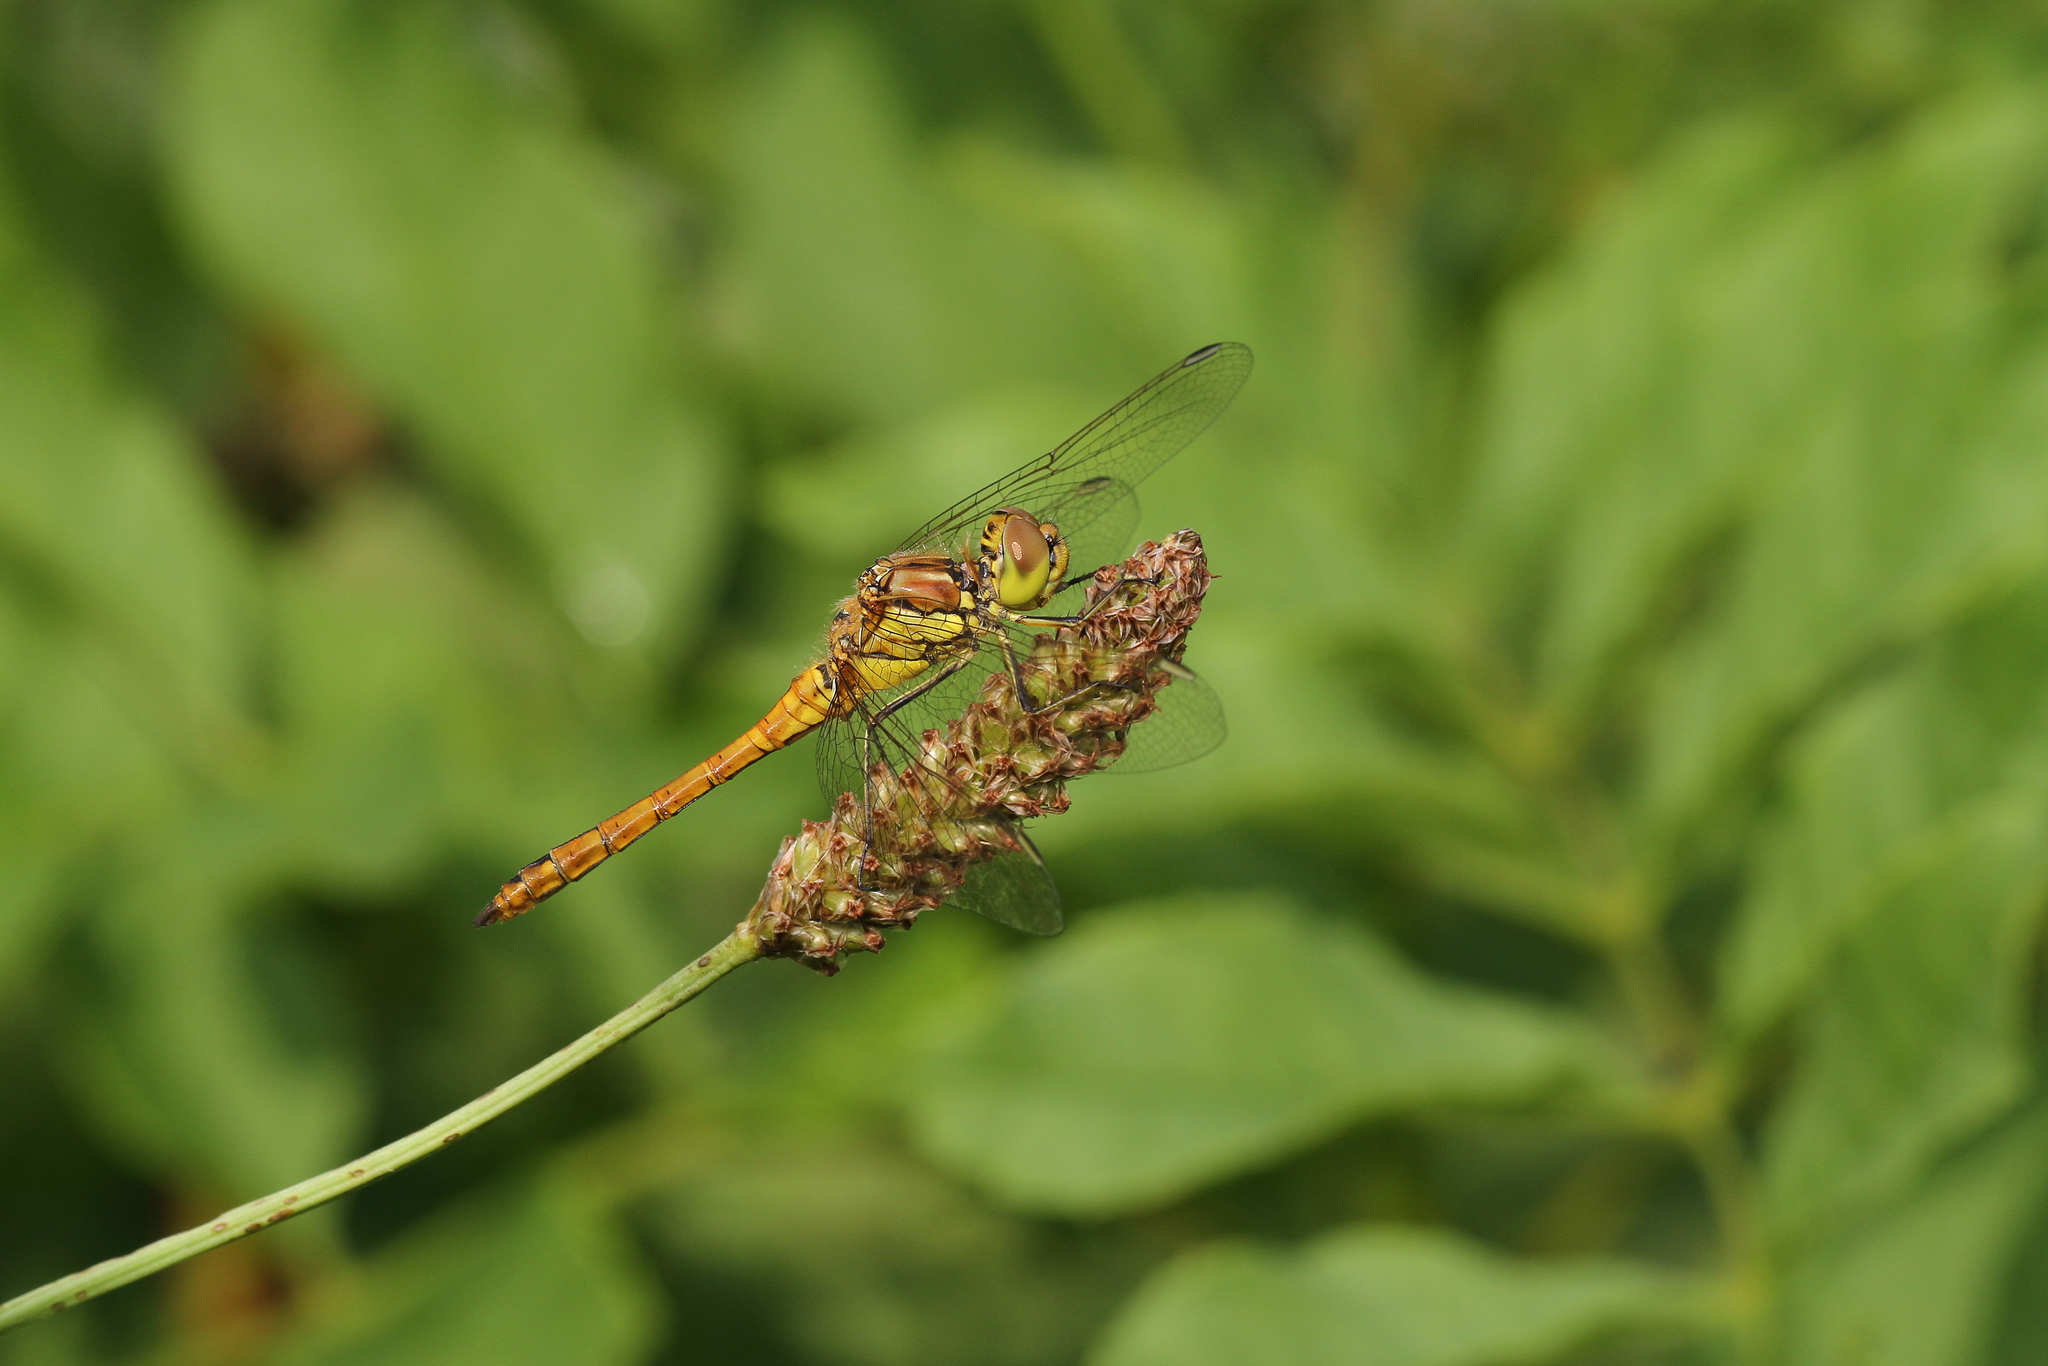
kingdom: Animalia
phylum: Arthropoda
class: Insecta
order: Odonata
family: Libellulidae
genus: Sympetrum
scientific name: Sympetrum vulgatum
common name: Vagrant darter
